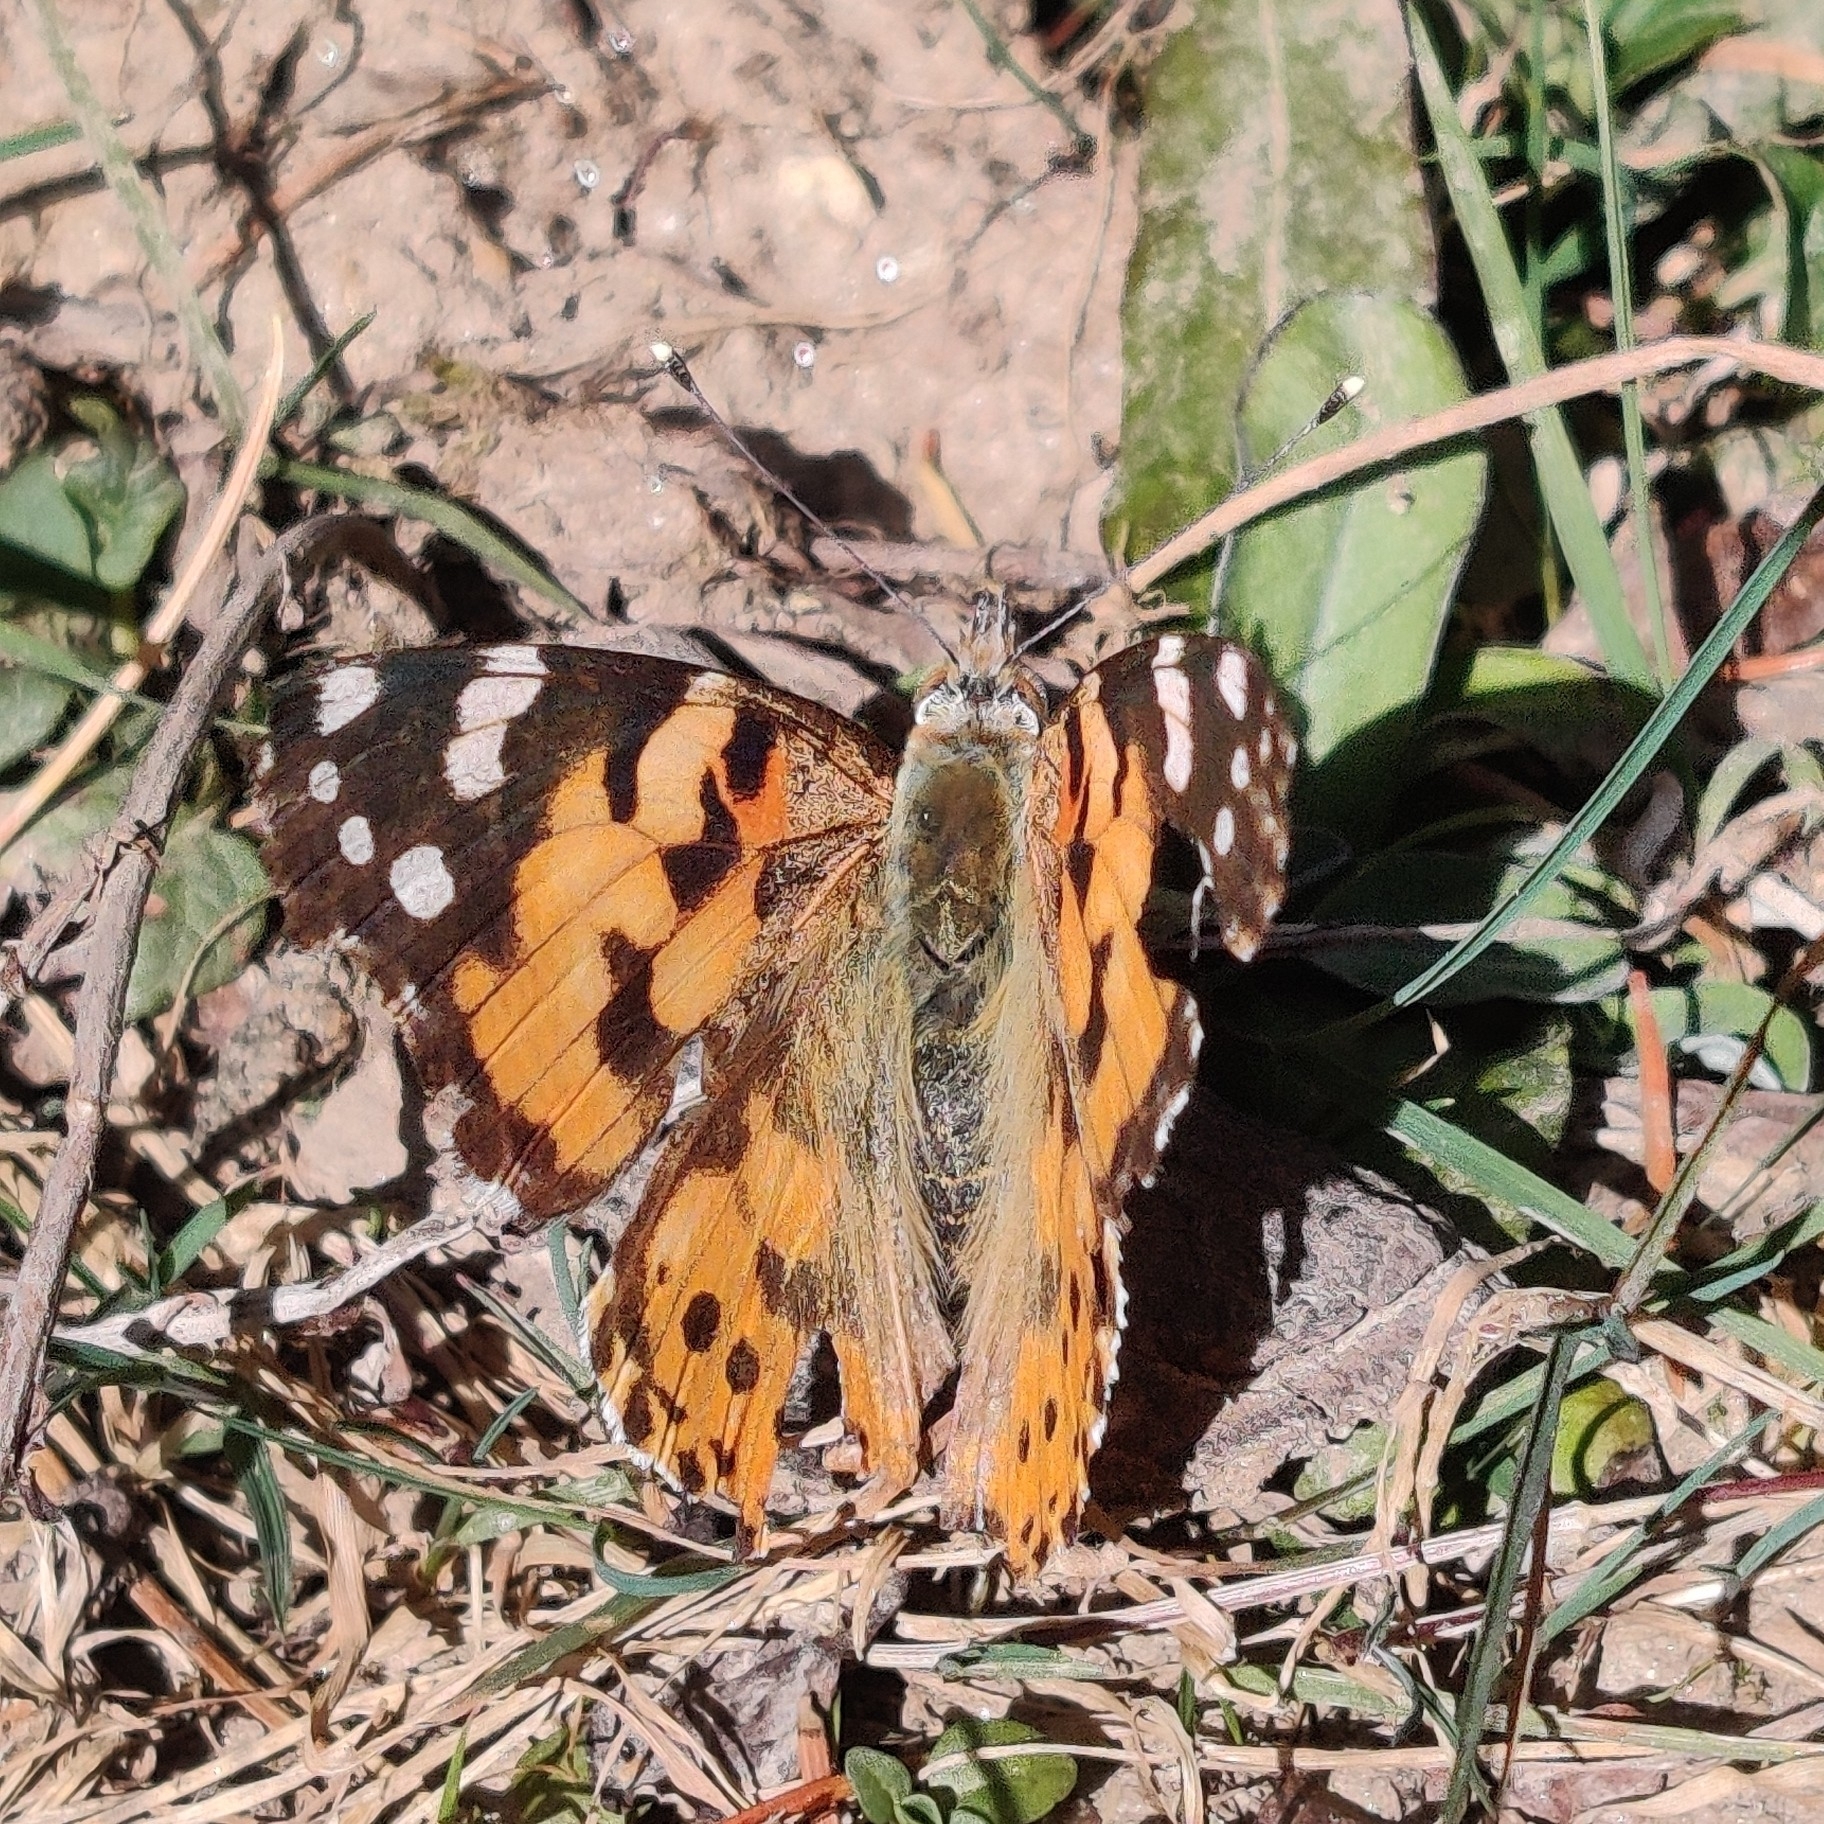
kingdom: Animalia
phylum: Arthropoda
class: Insecta
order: Lepidoptera
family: Nymphalidae
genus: Vanessa
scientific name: Vanessa cardui
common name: Painted lady
